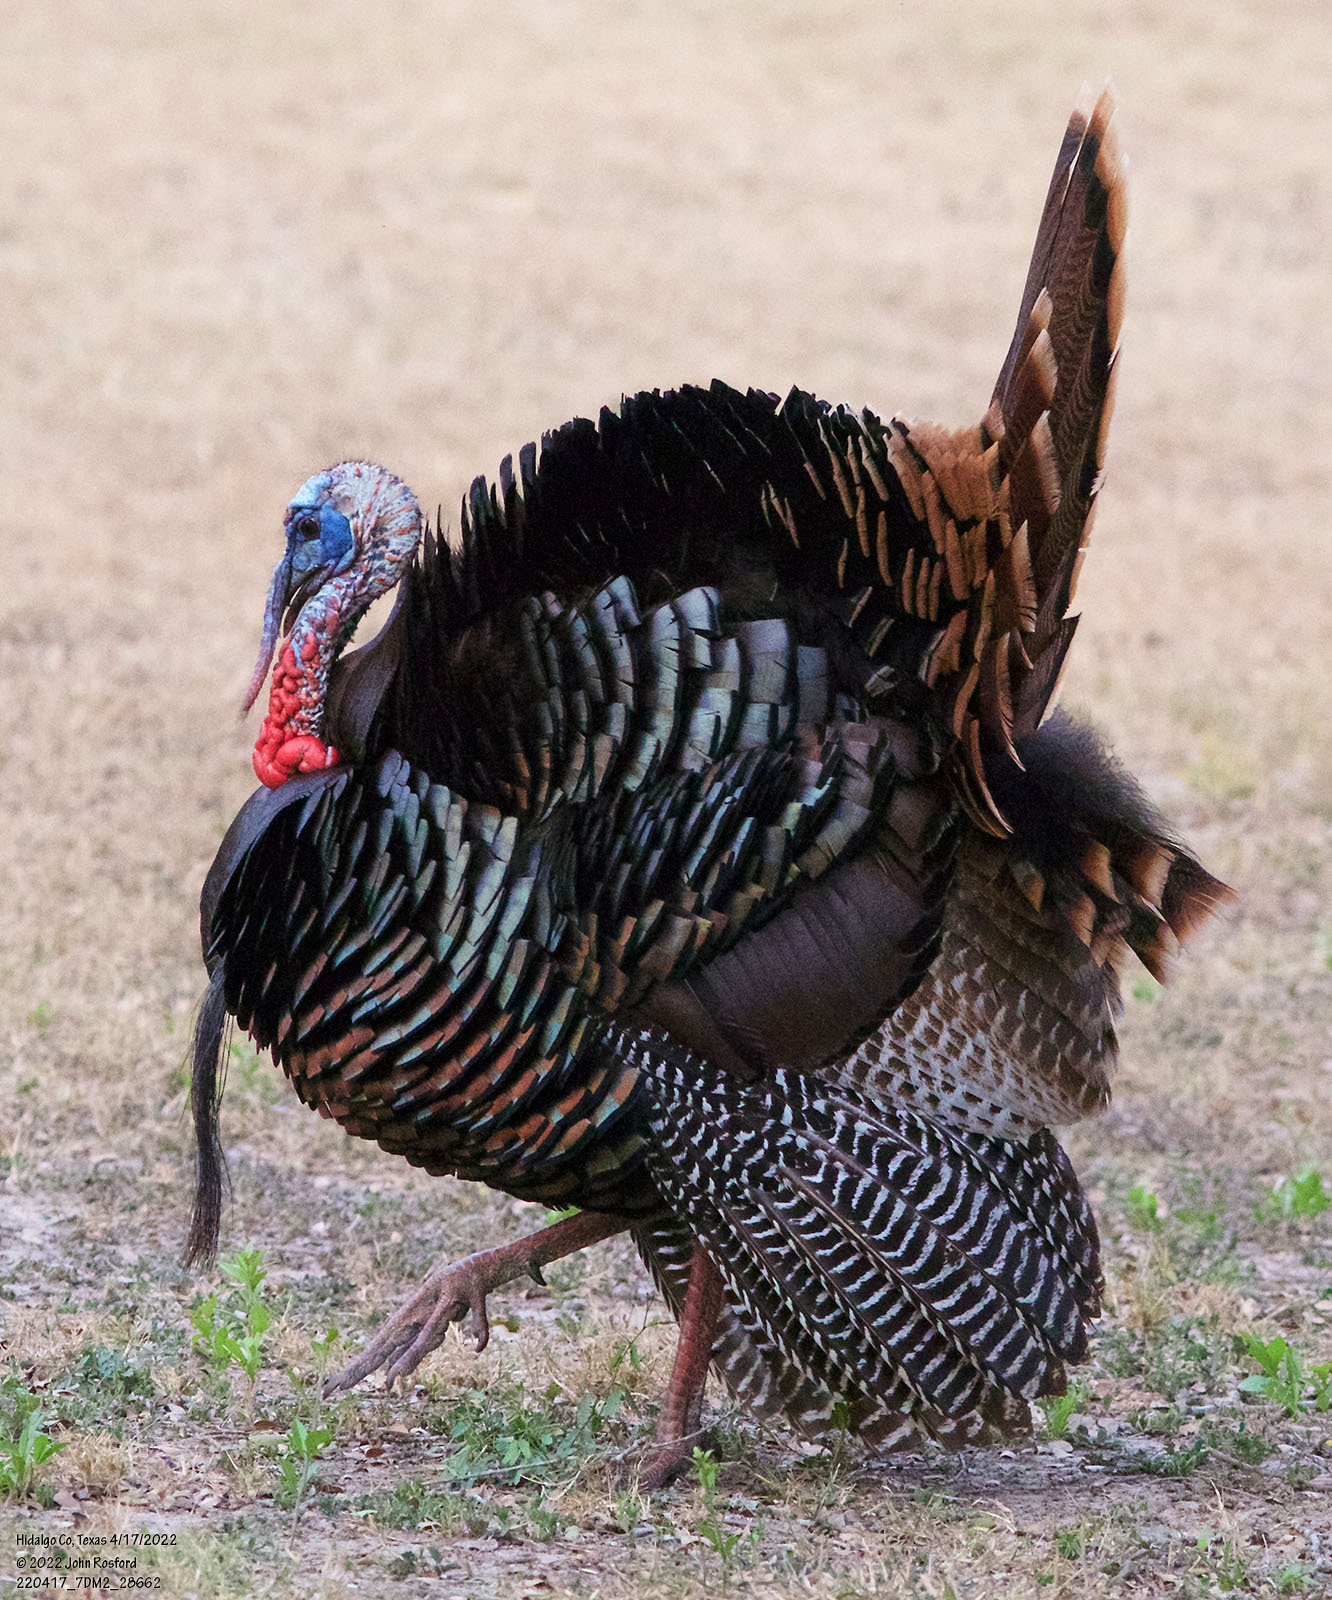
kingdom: Animalia
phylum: Chordata
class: Aves
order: Galliformes
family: Phasianidae
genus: Meleagris
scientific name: Meleagris gallopavo
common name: Wild turkey
